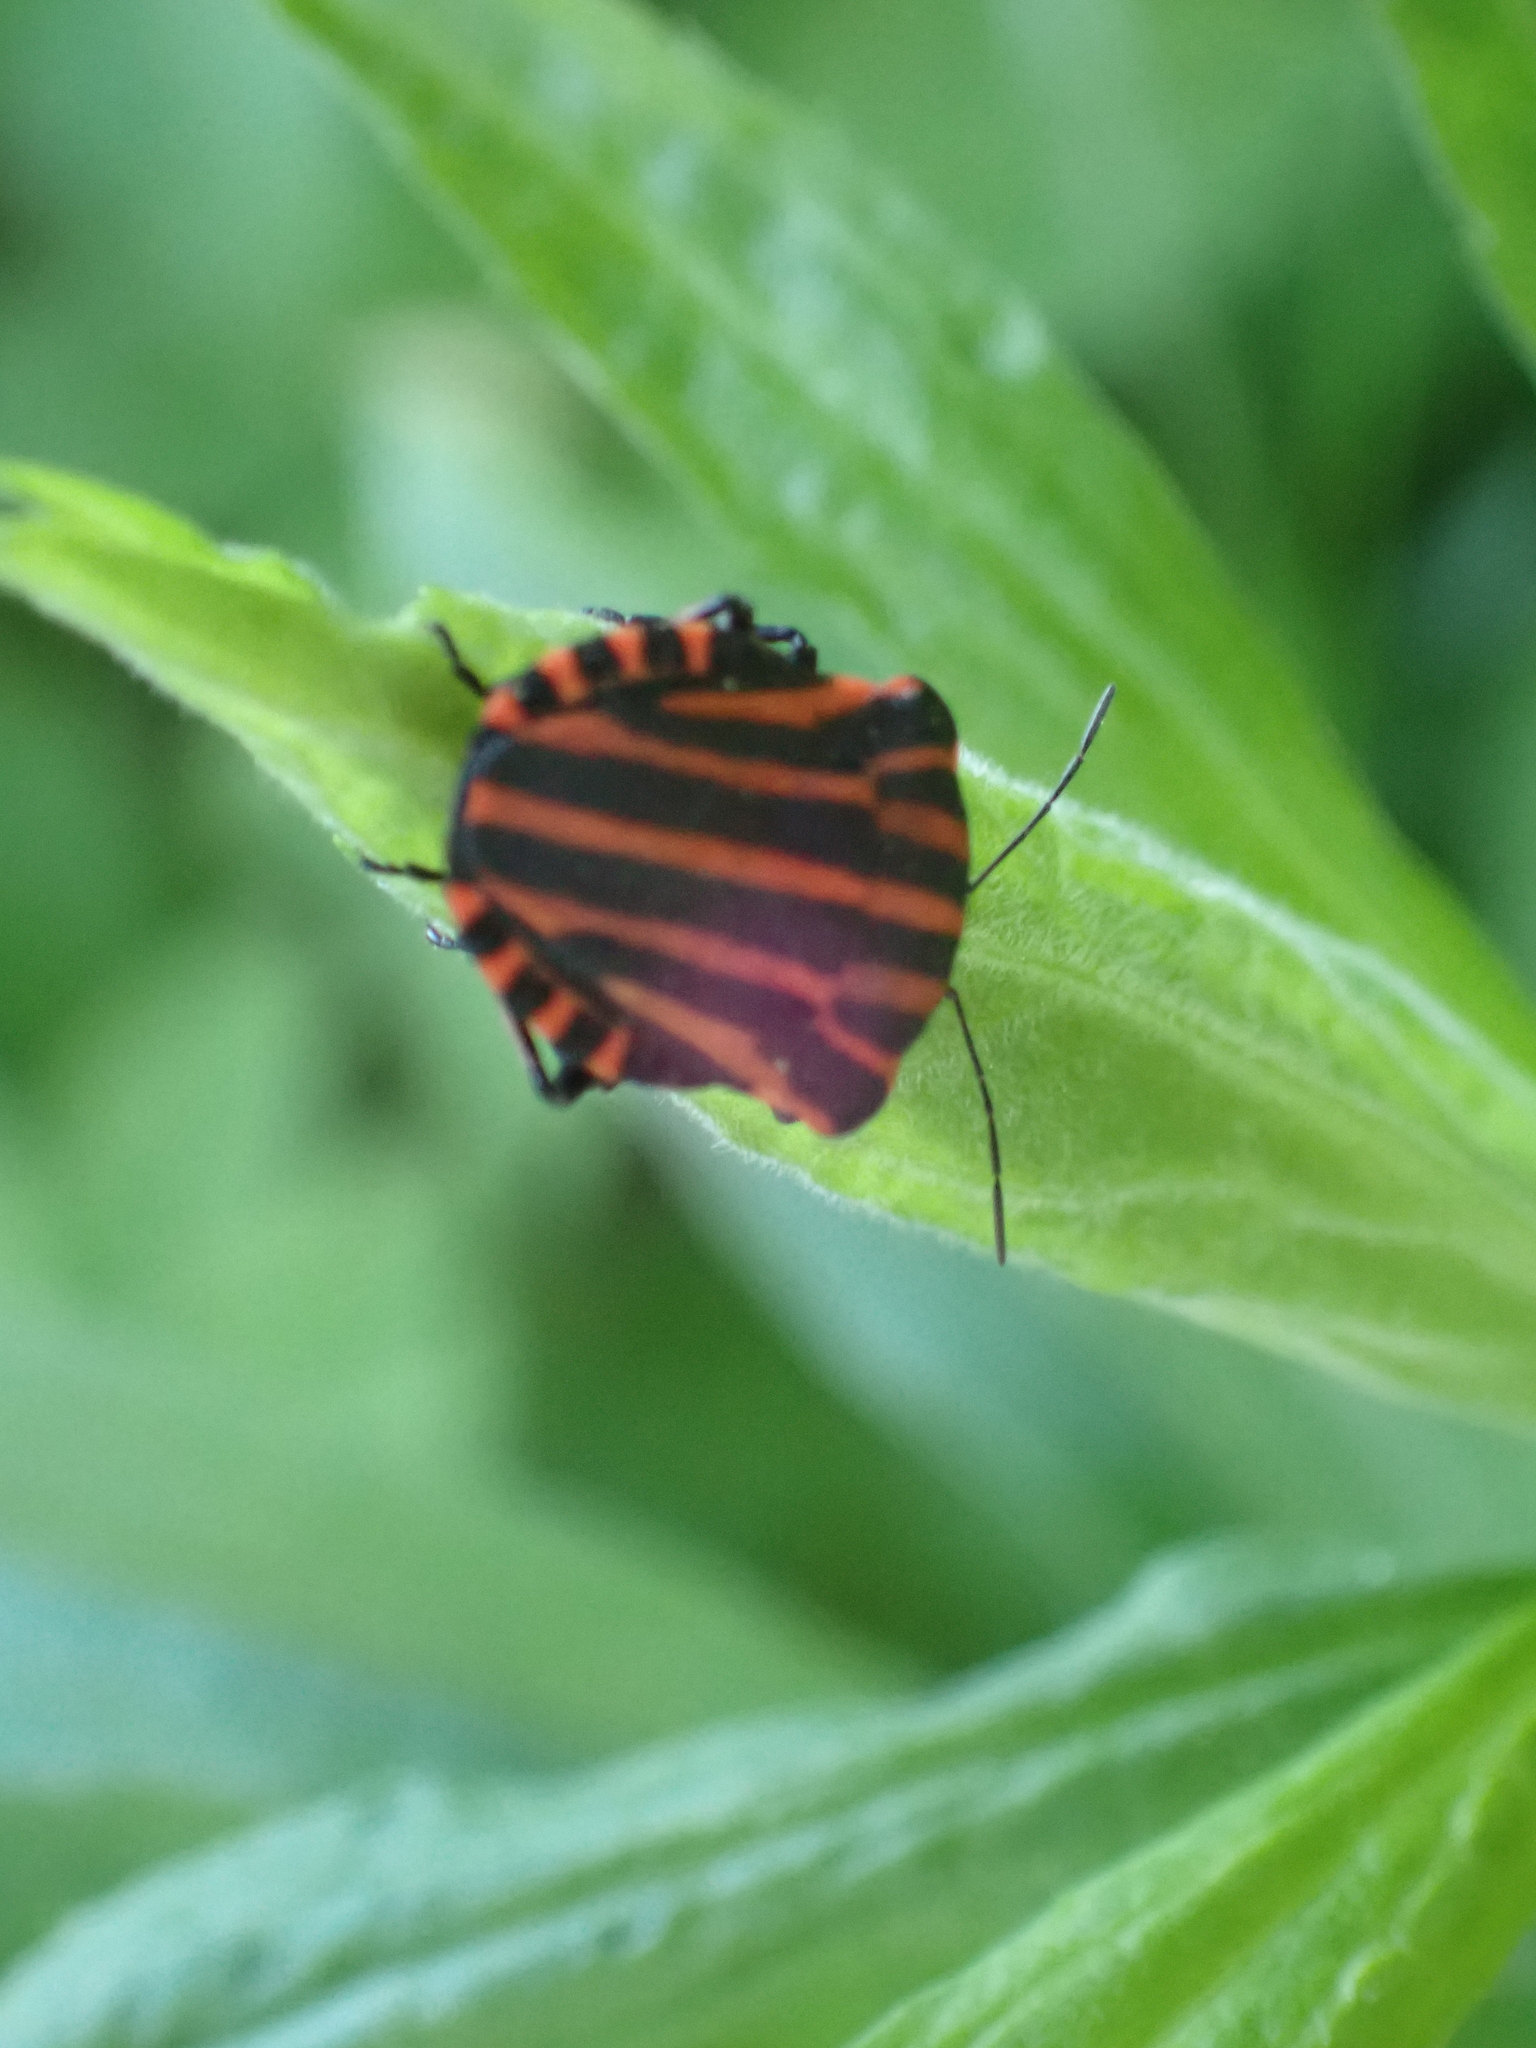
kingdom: Animalia
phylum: Arthropoda
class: Insecta
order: Hemiptera
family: Pentatomidae
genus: Graphosoma
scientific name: Graphosoma italicum
